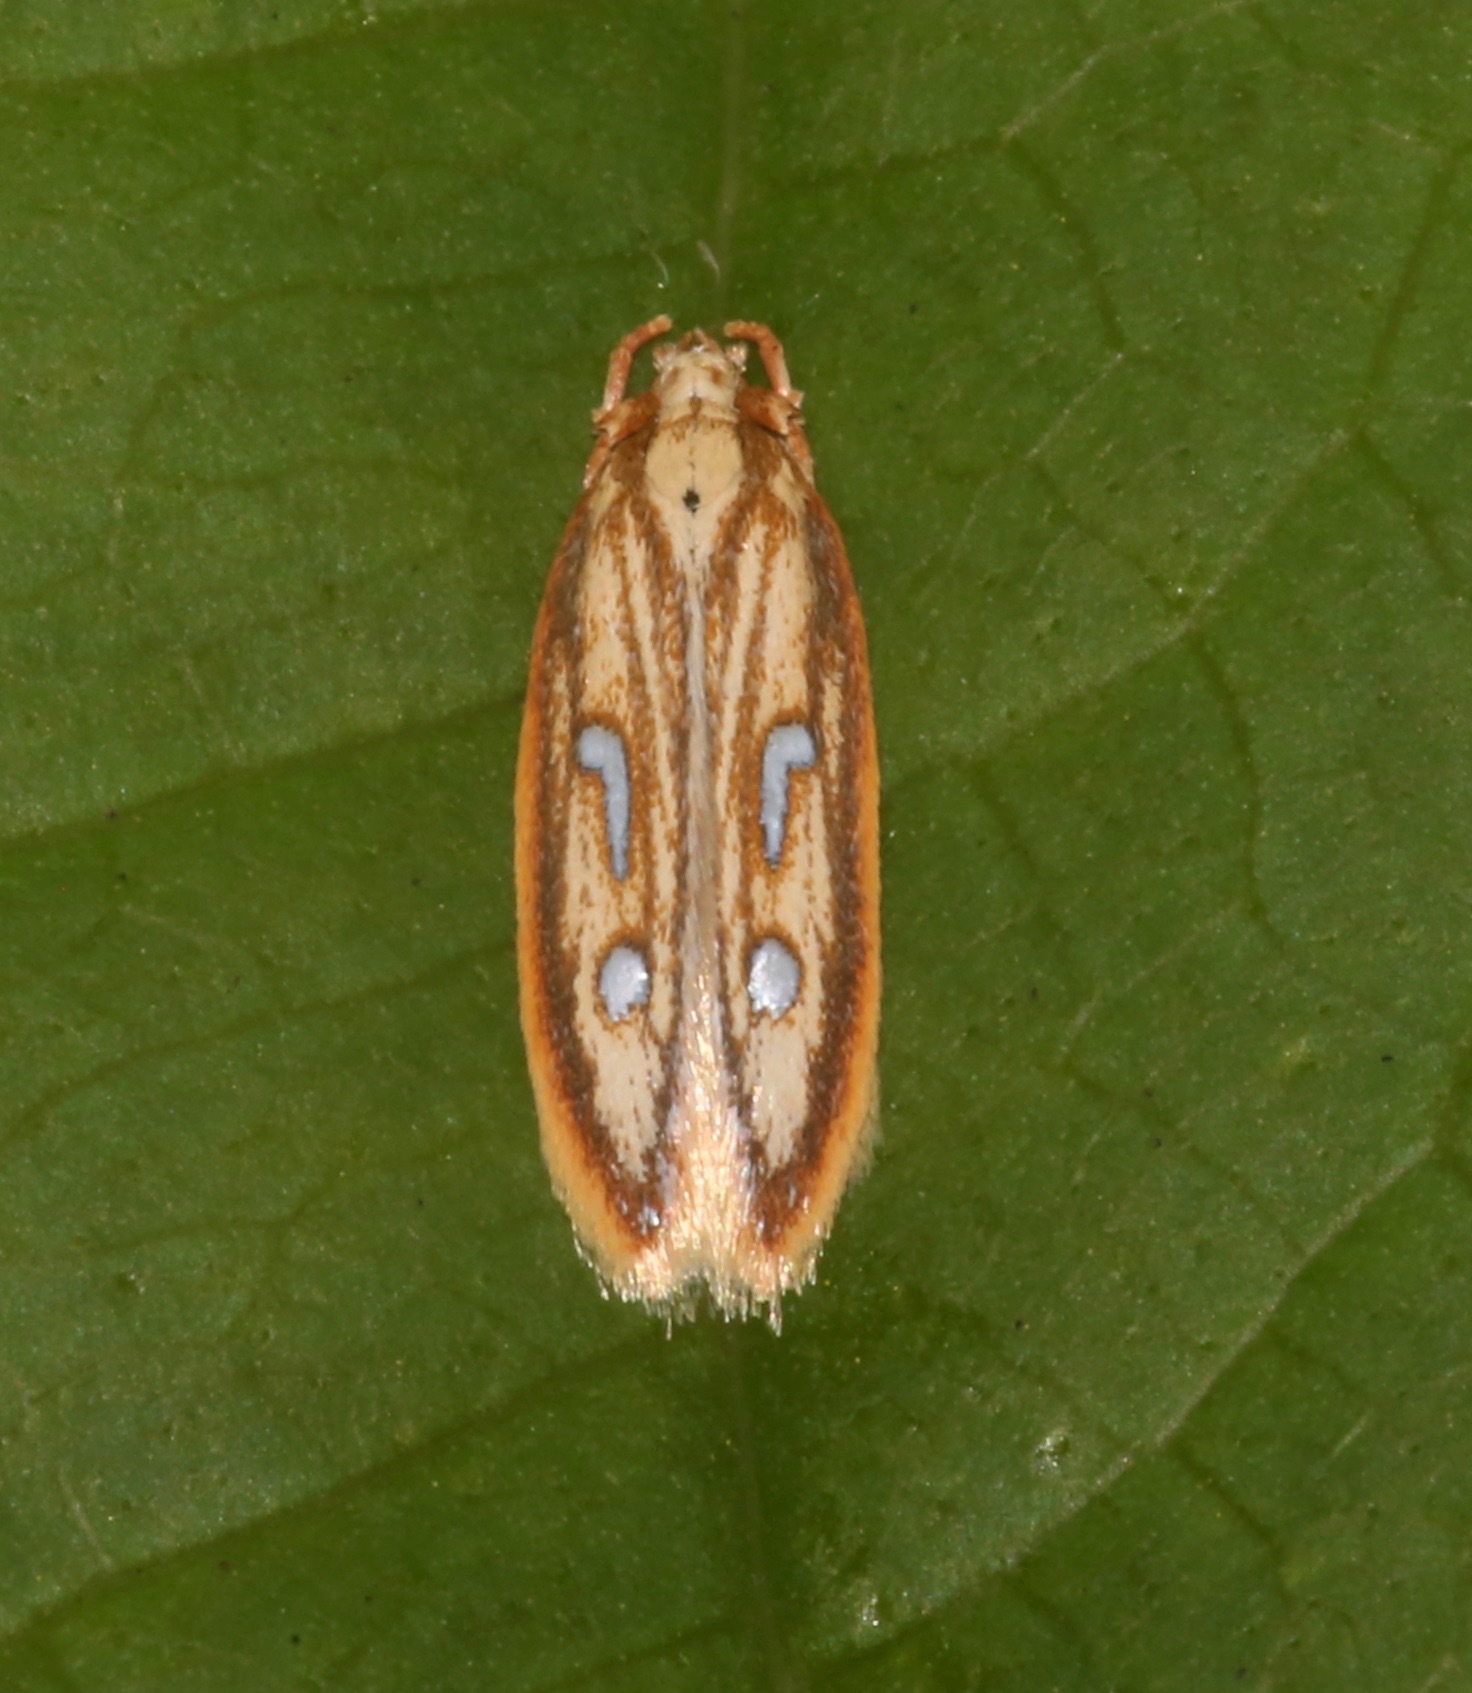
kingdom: Animalia
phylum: Arthropoda
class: Insecta
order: Lepidoptera
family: Coleophoridae
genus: Homaledra
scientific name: Homaledra heptathalama
